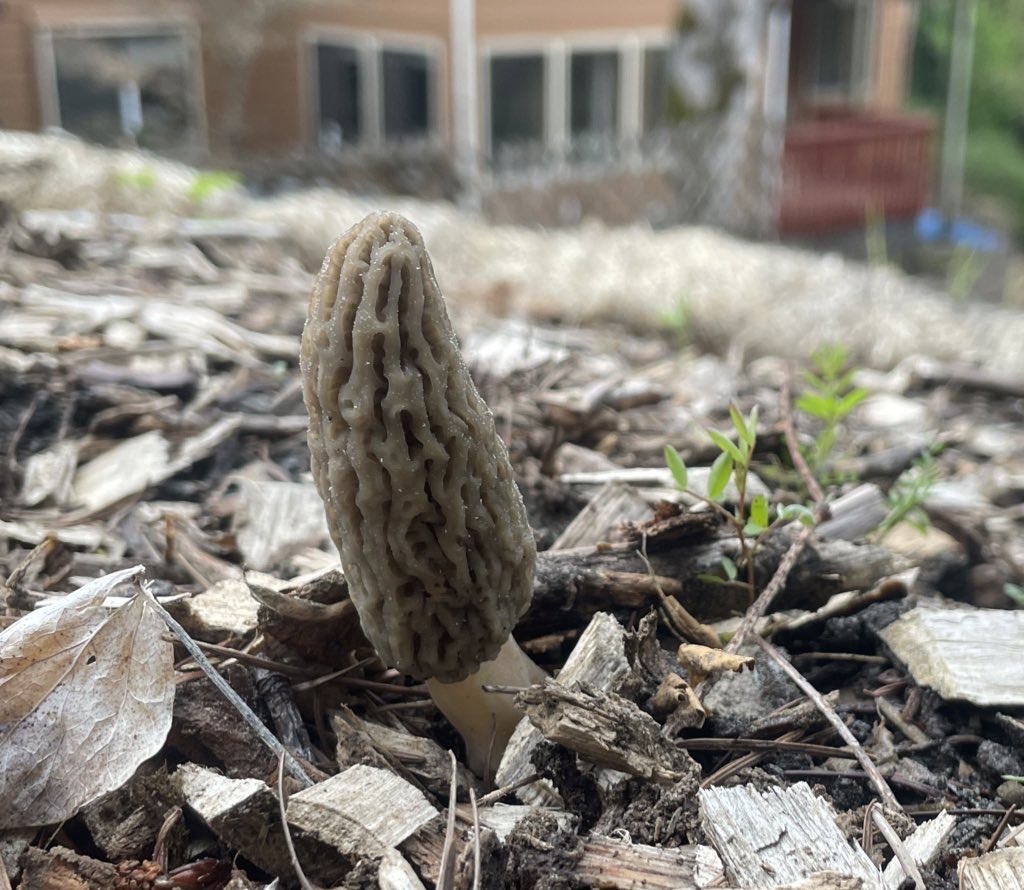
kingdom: Fungi
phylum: Ascomycota
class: Pezizomycetes
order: Pezizales
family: Morchellaceae
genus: Morchella
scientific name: Morchella importuna
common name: Landscaping black morel
